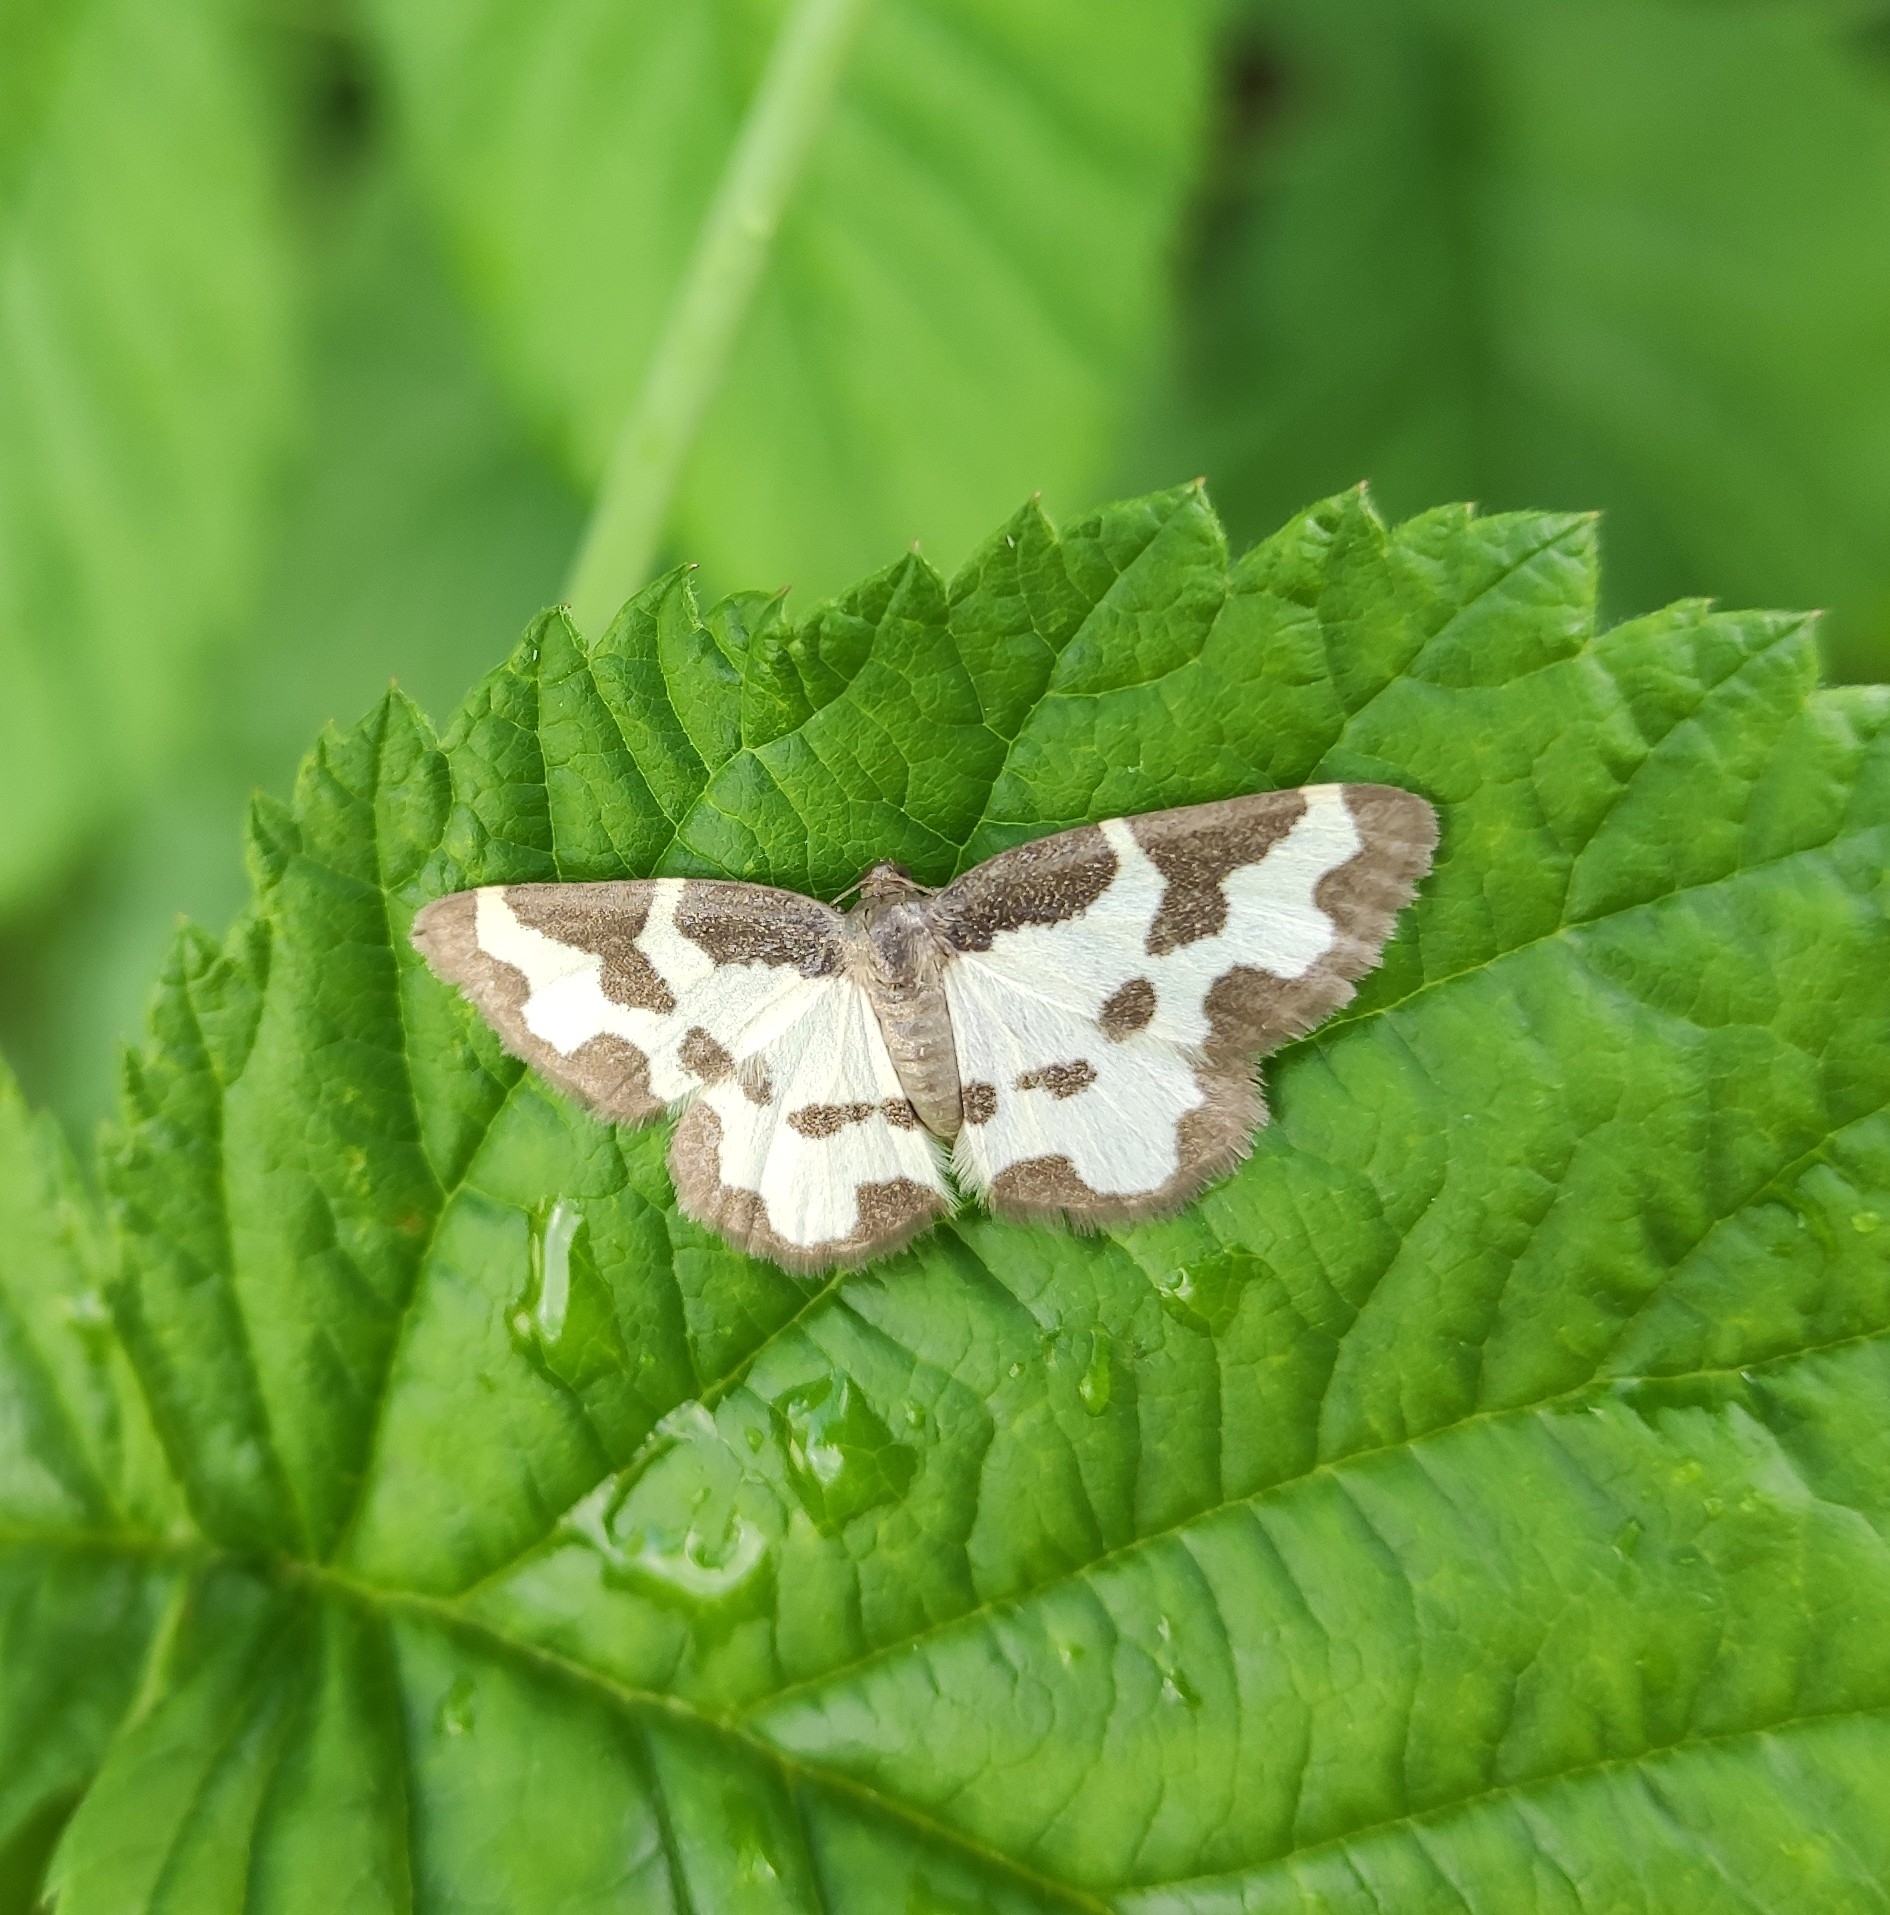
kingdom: Animalia
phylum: Arthropoda
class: Insecta
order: Lepidoptera
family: Geometridae
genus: Lomaspilis
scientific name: Lomaspilis marginata
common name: Clouded border
